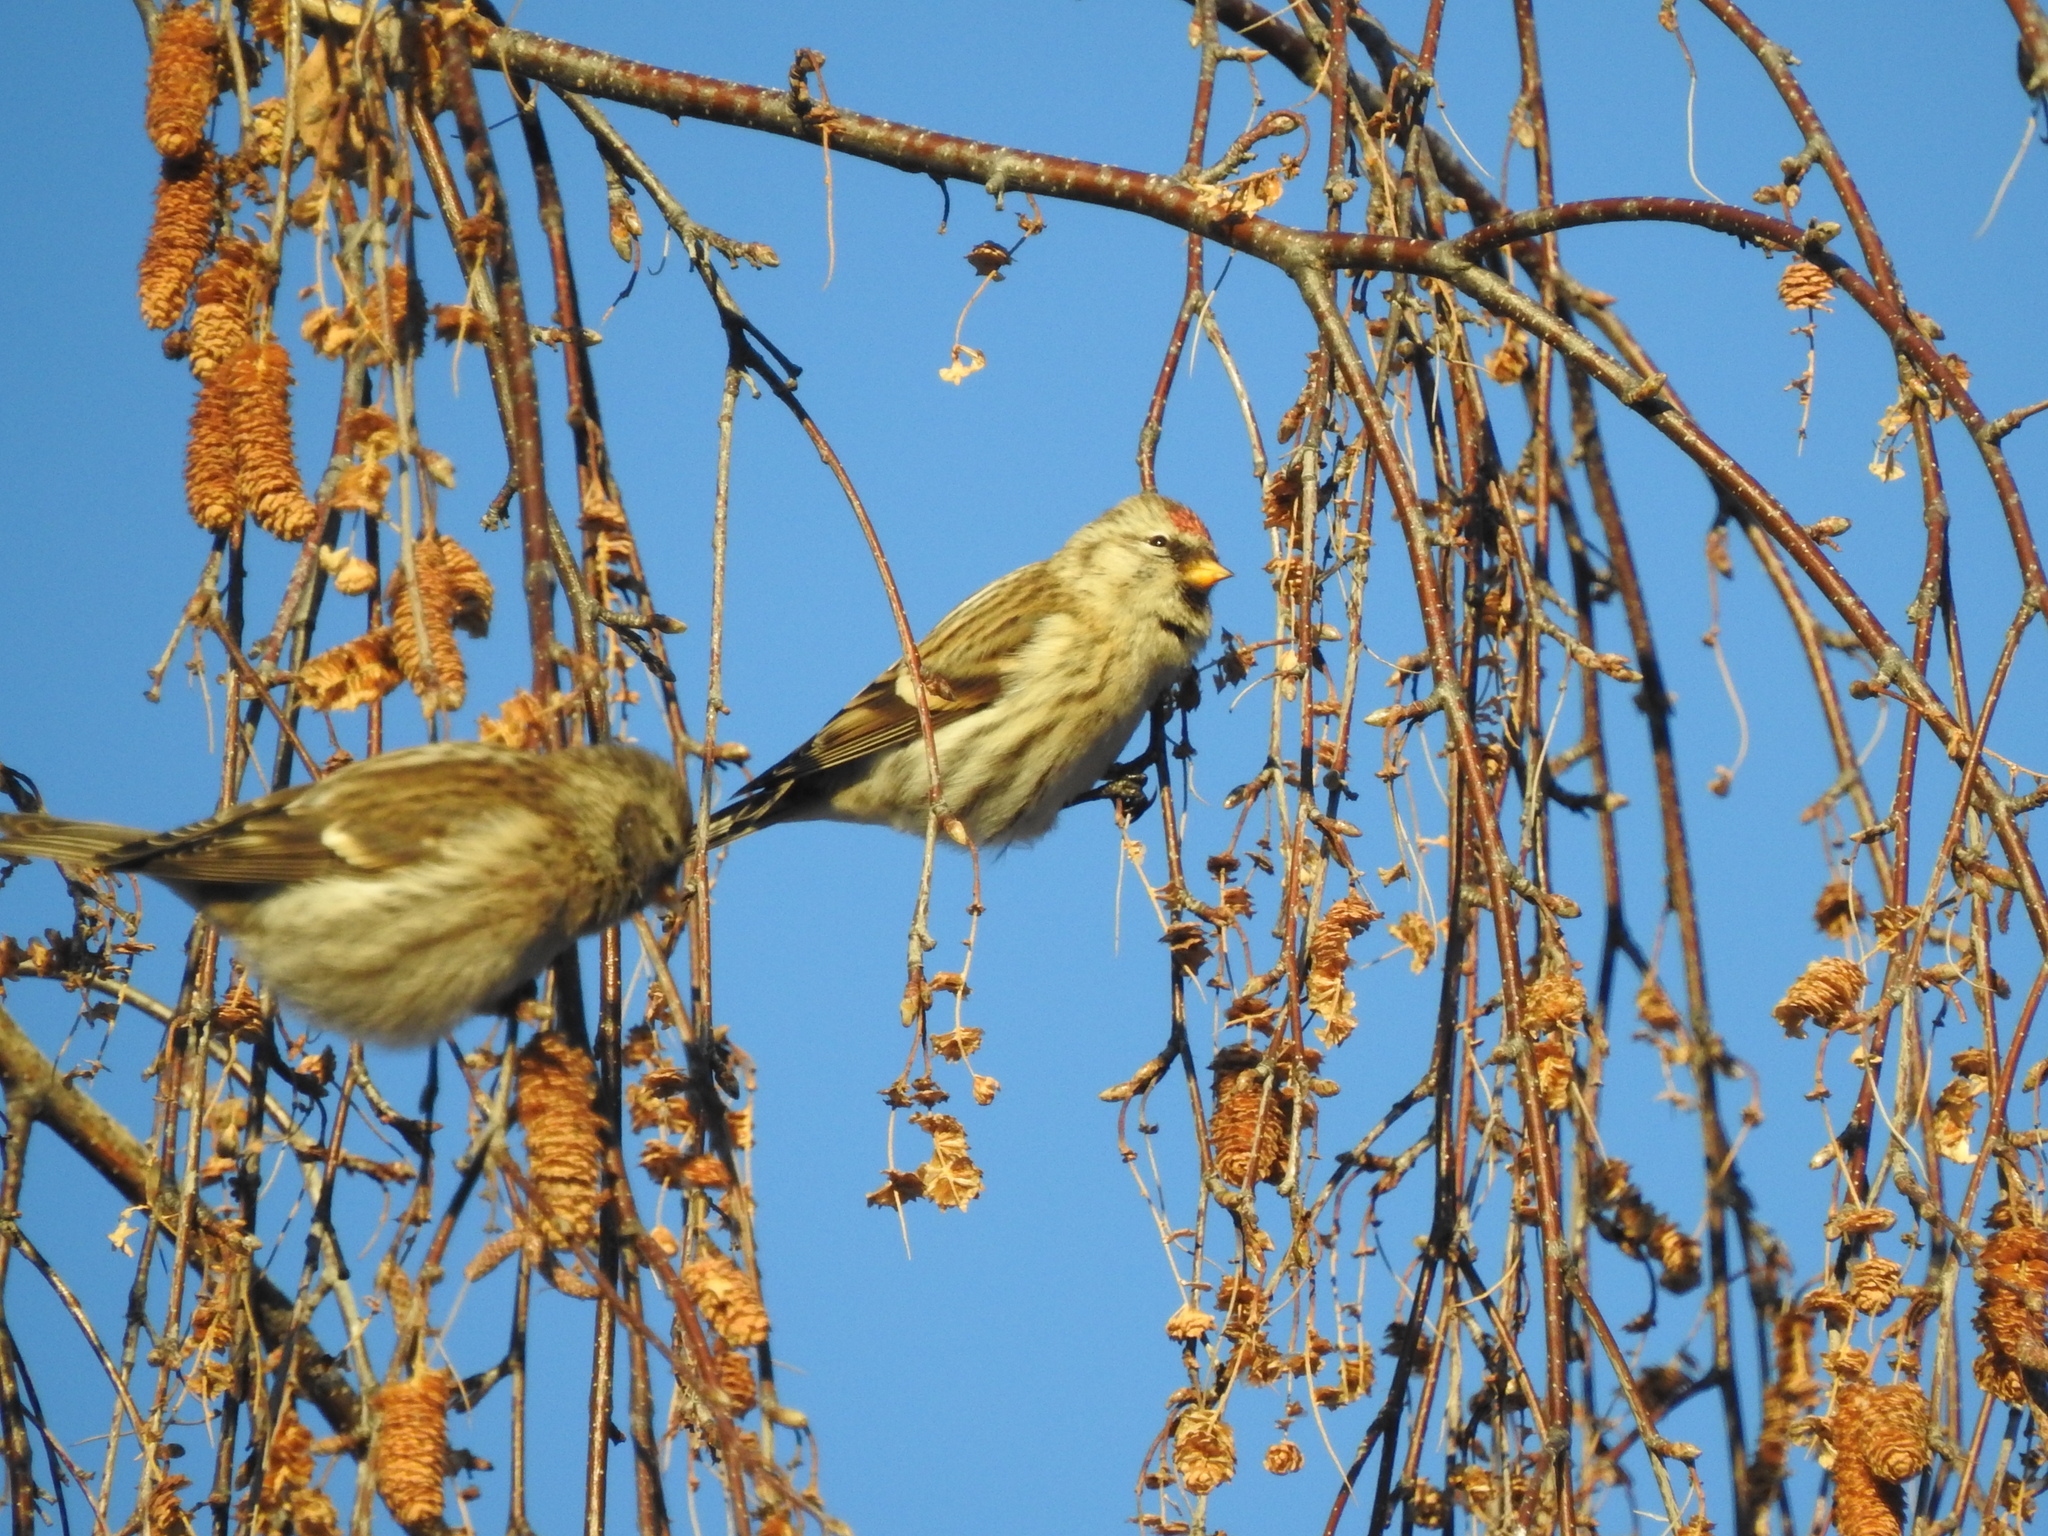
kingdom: Animalia
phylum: Chordata
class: Aves
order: Passeriformes
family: Fringillidae
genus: Acanthis
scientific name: Acanthis flammea
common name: Common redpoll
